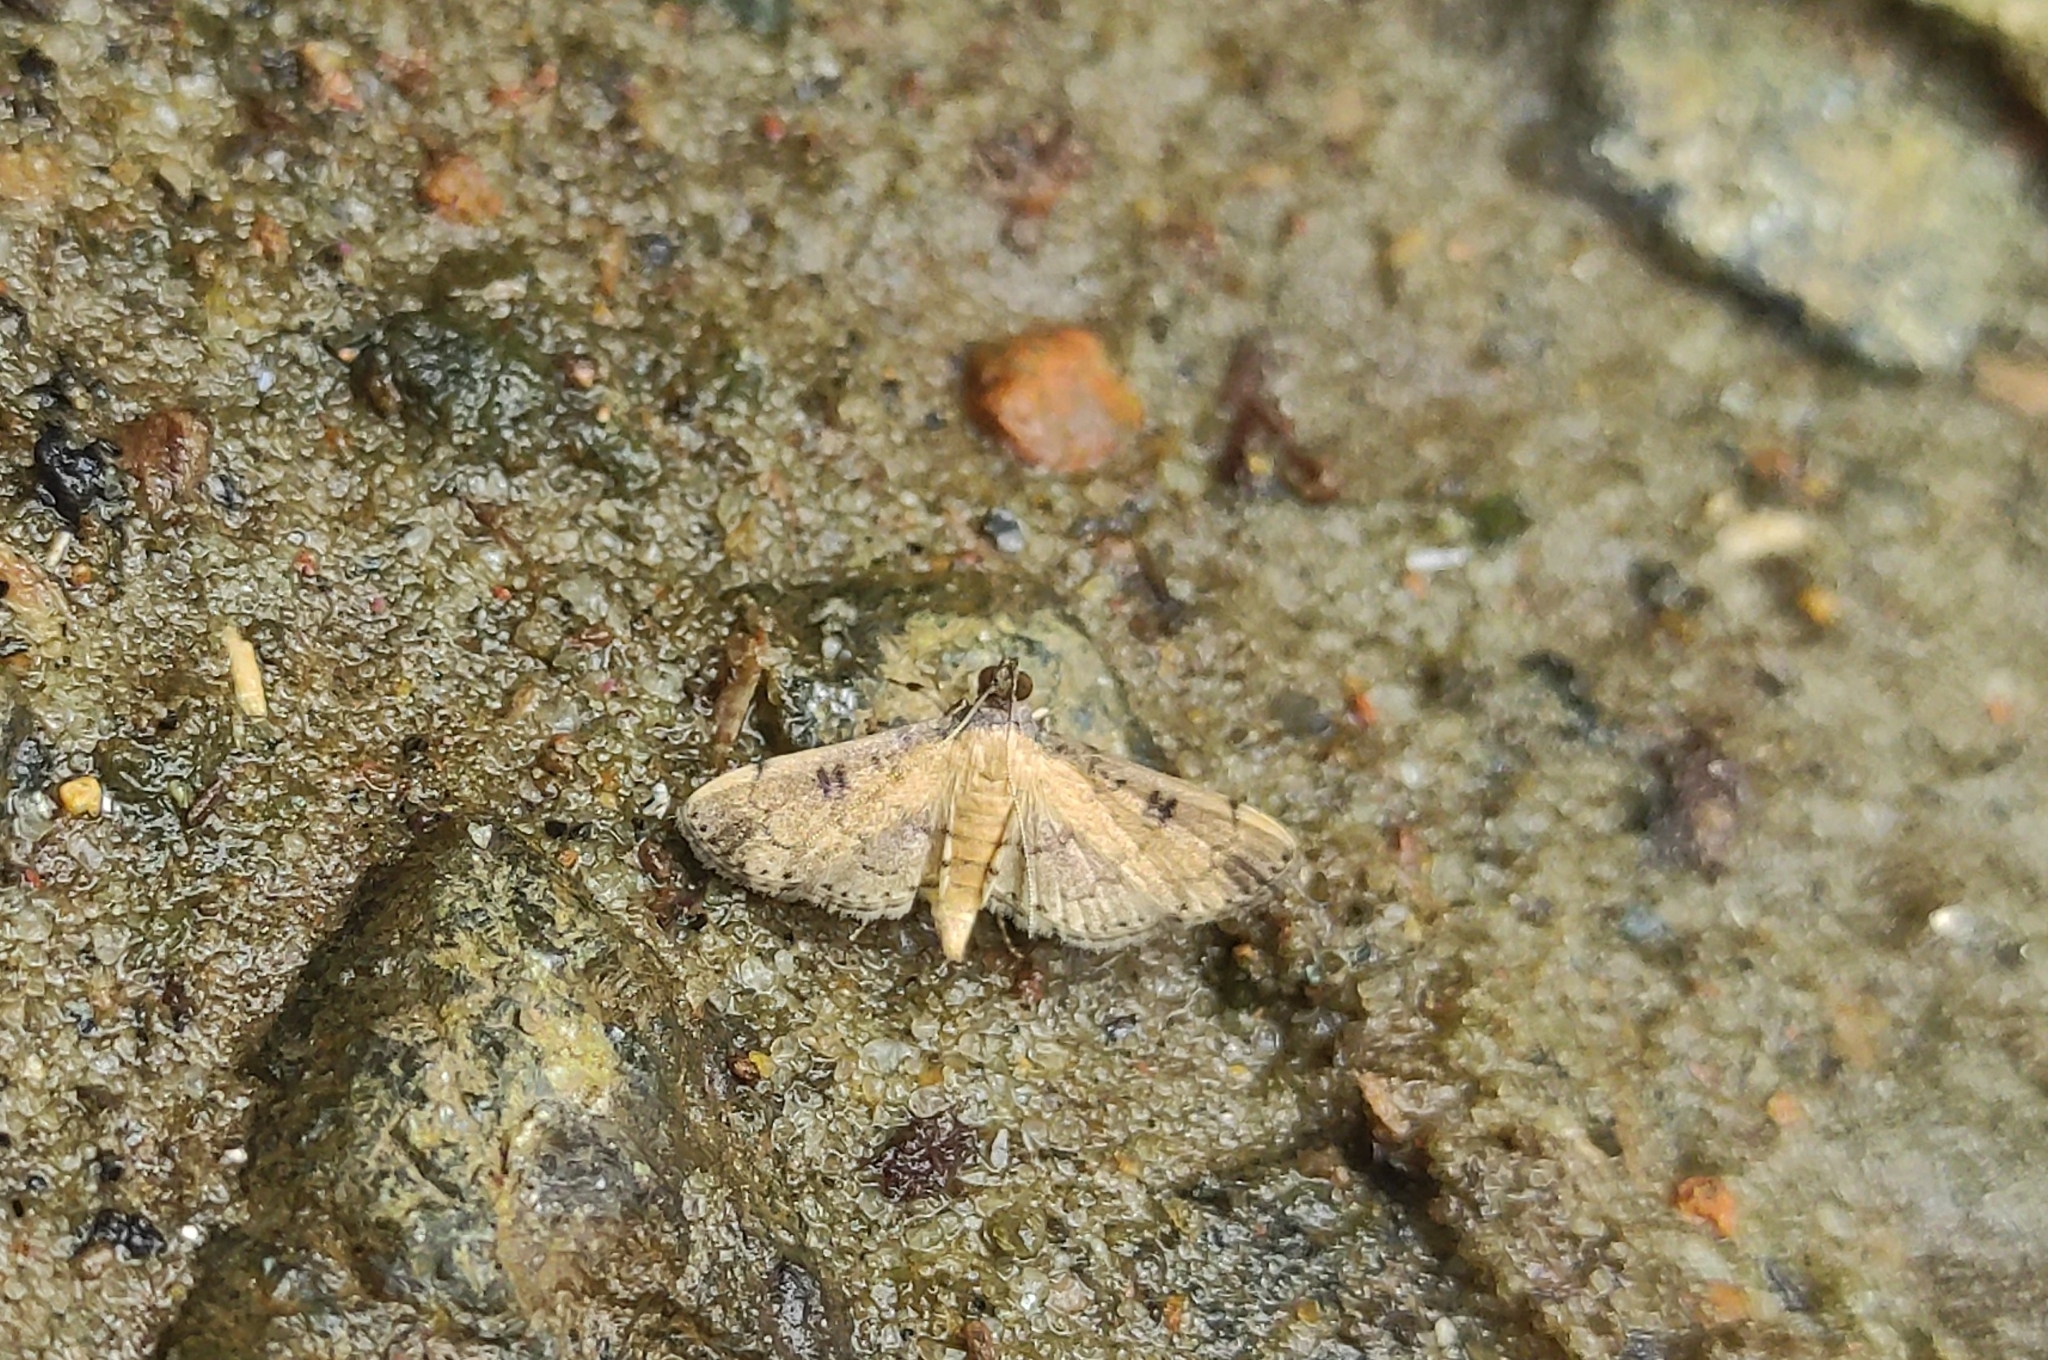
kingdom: Animalia
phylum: Arthropoda
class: Insecta
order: Lepidoptera
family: Crambidae
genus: Nacoleia
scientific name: Nacoleia charesalis
